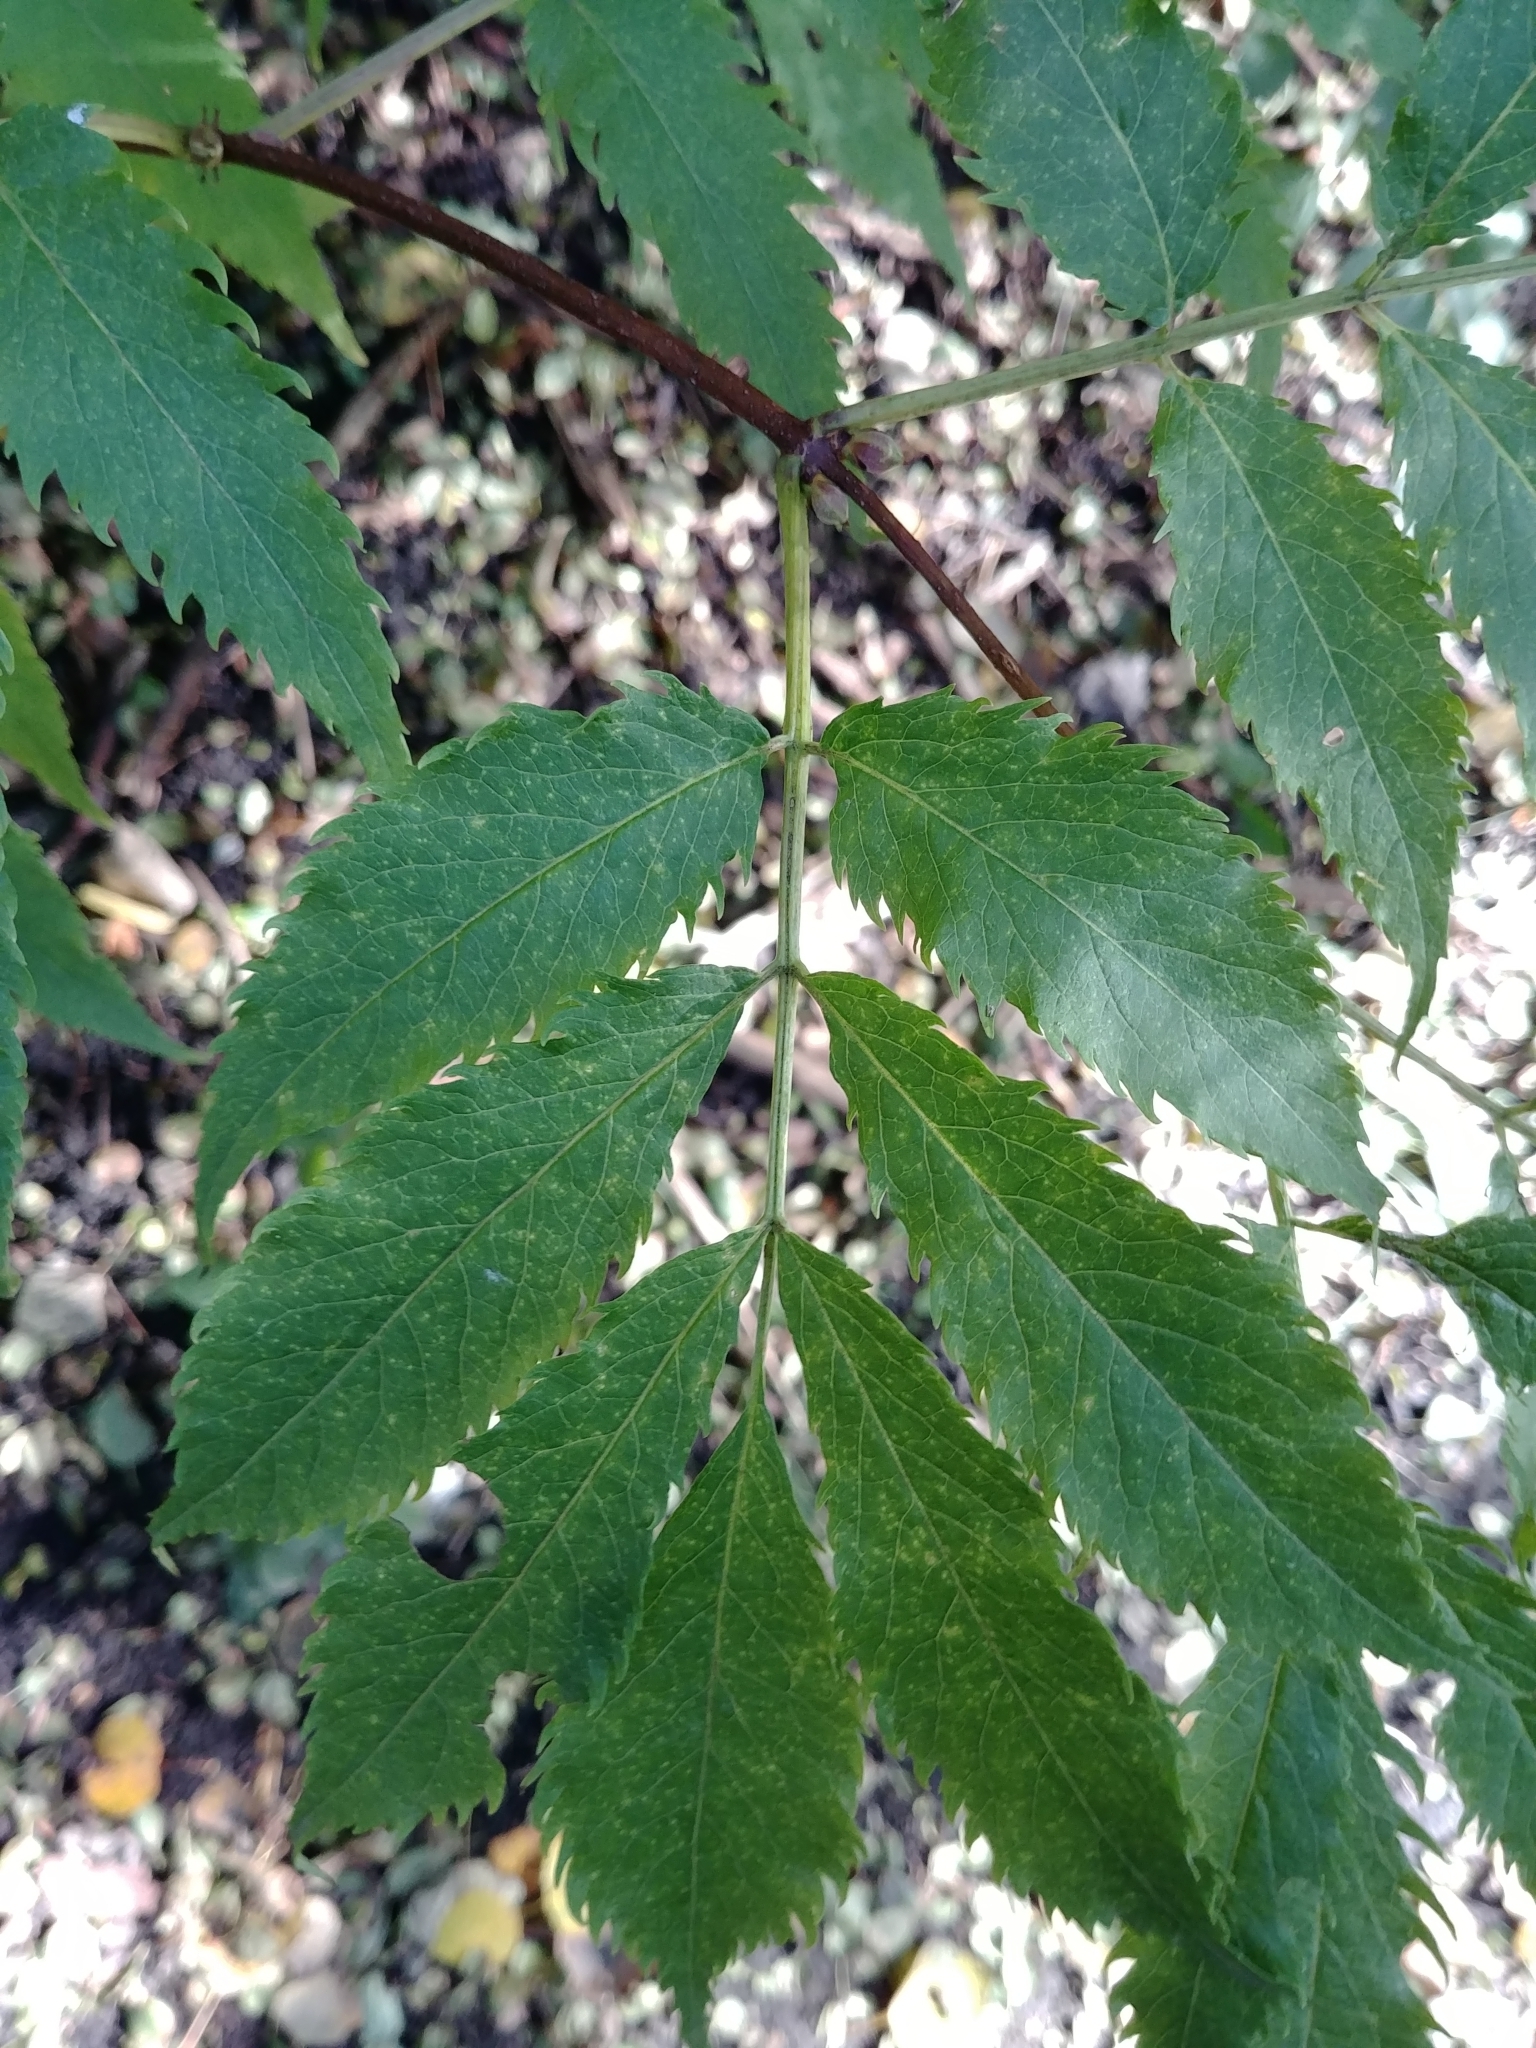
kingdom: Plantae
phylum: Tracheophyta
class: Magnoliopsida
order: Dipsacales
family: Viburnaceae
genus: Sambucus
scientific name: Sambucus racemosa
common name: Red-berried elder
